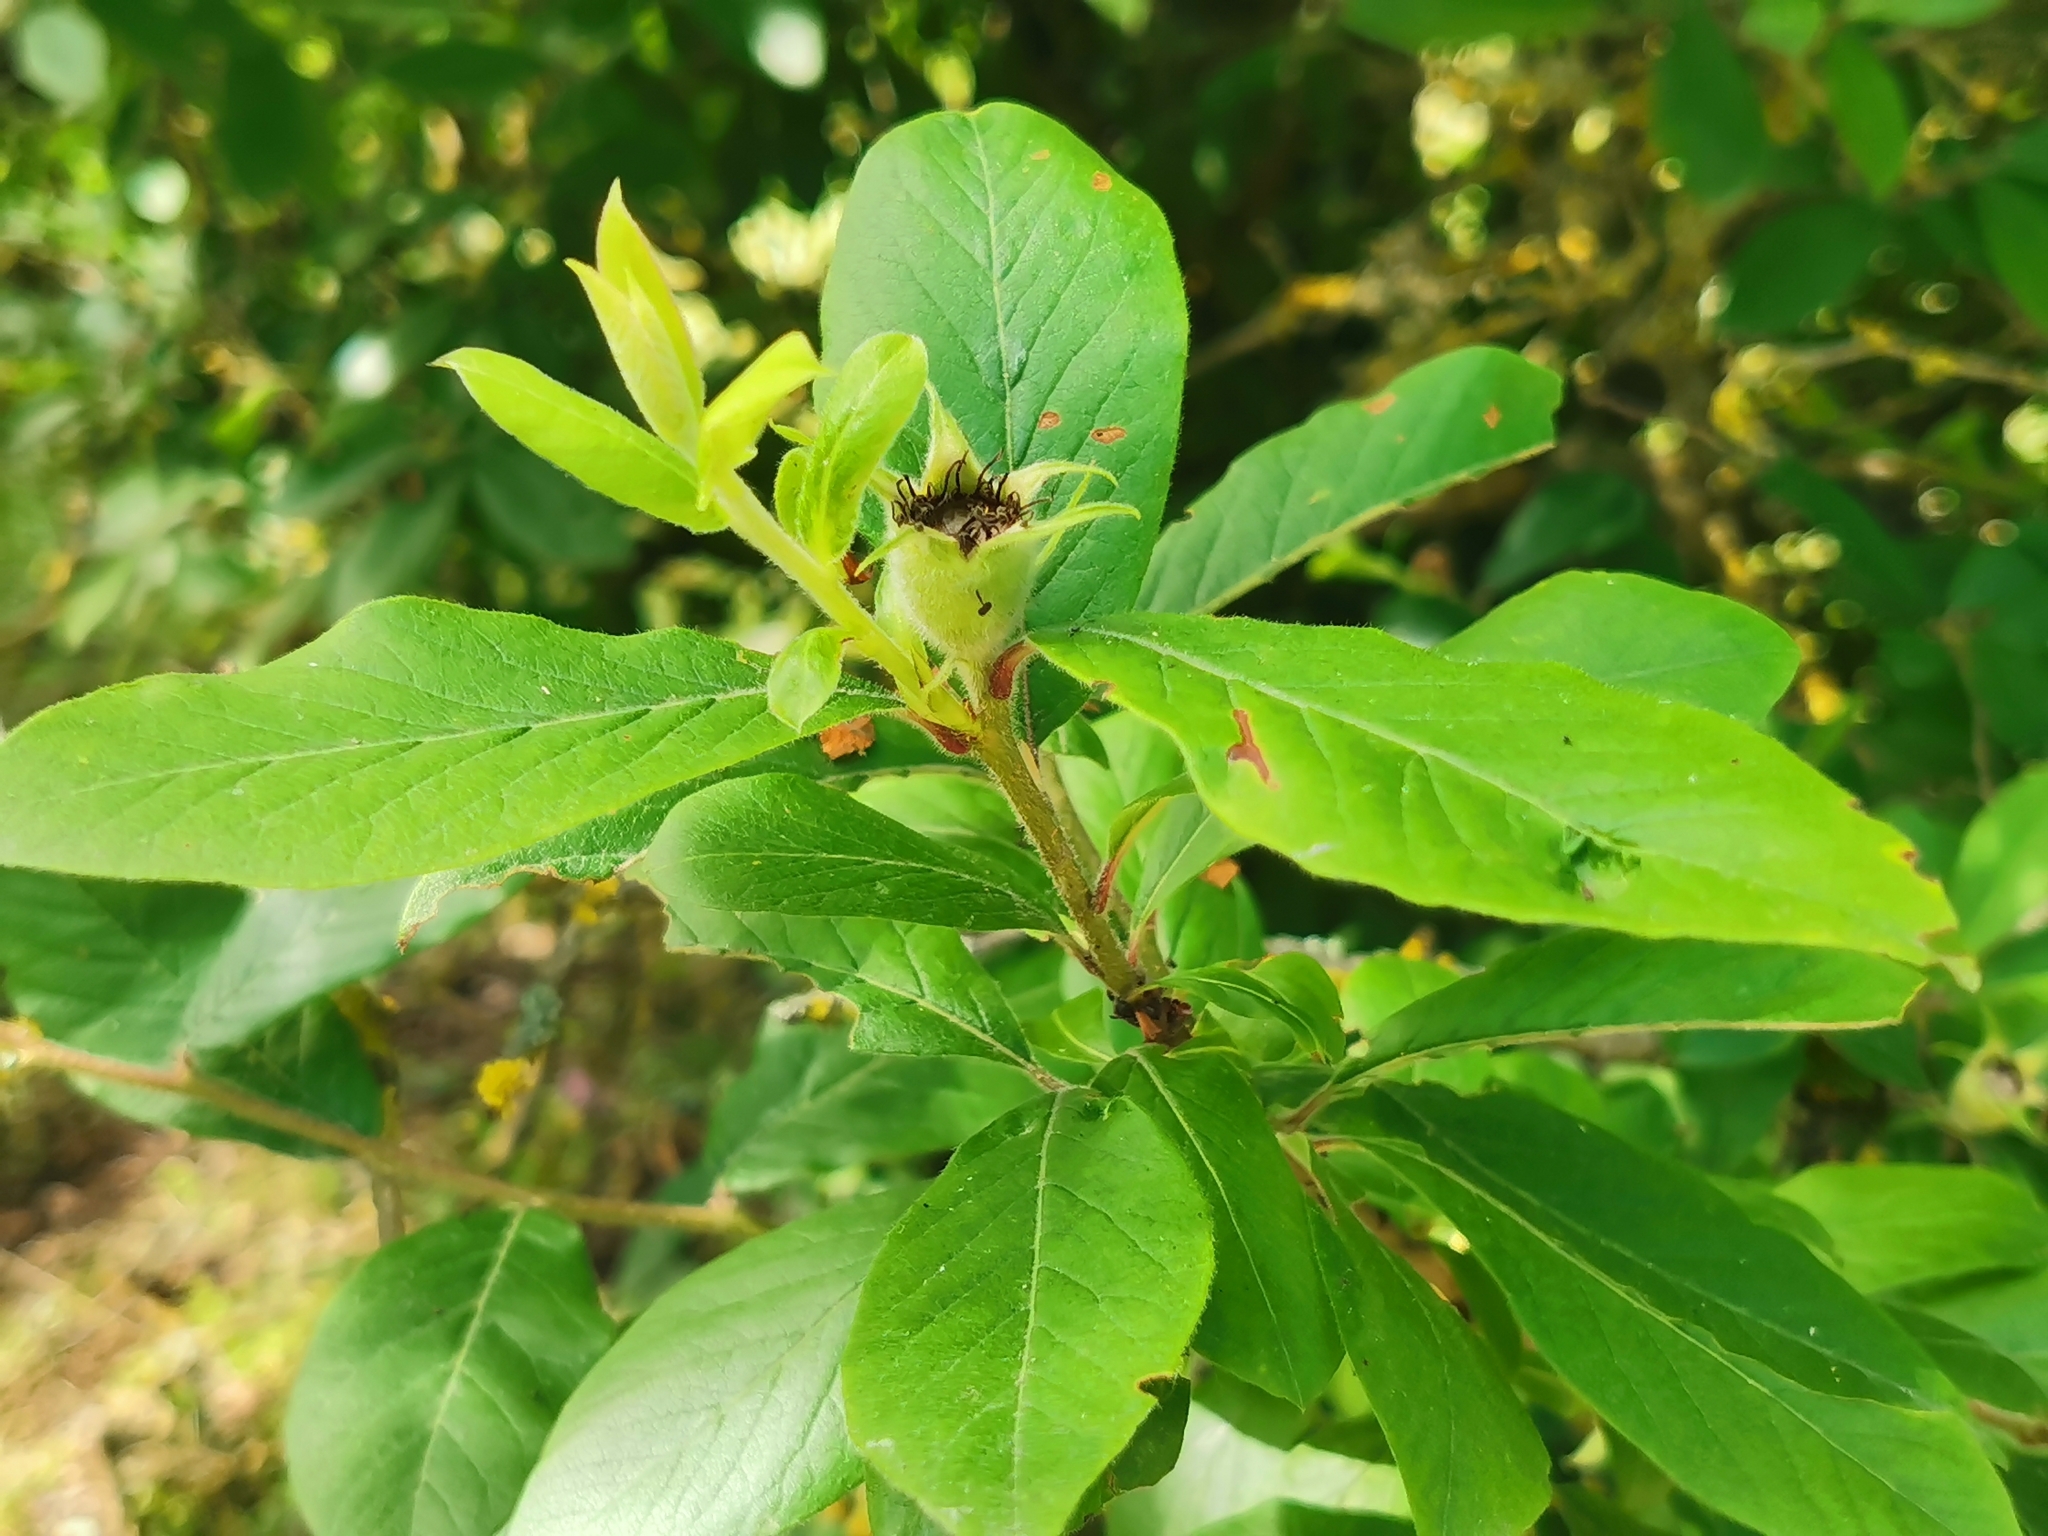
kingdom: Plantae
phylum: Tracheophyta
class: Magnoliopsida
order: Rosales
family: Rosaceae
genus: Mespilus
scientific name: Mespilus germanica
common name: Medlar
